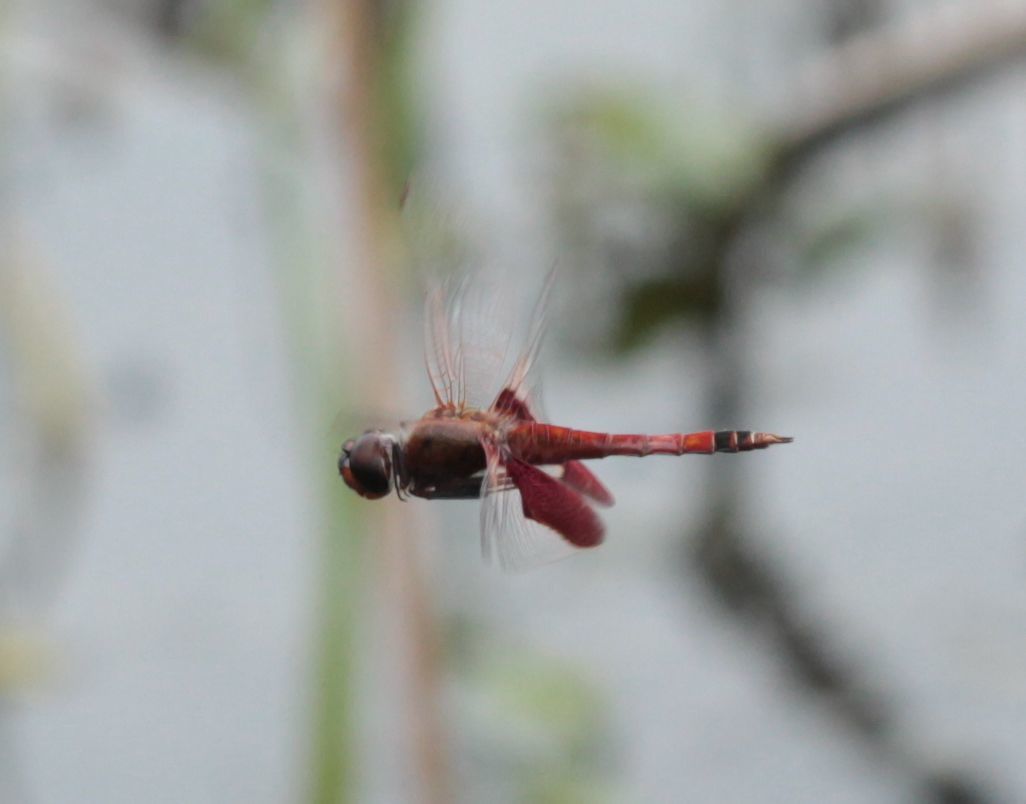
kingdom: Animalia
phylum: Arthropoda
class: Insecta
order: Odonata
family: Libellulidae
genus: Tramea
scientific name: Tramea carolina
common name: Carolina saddlebags
